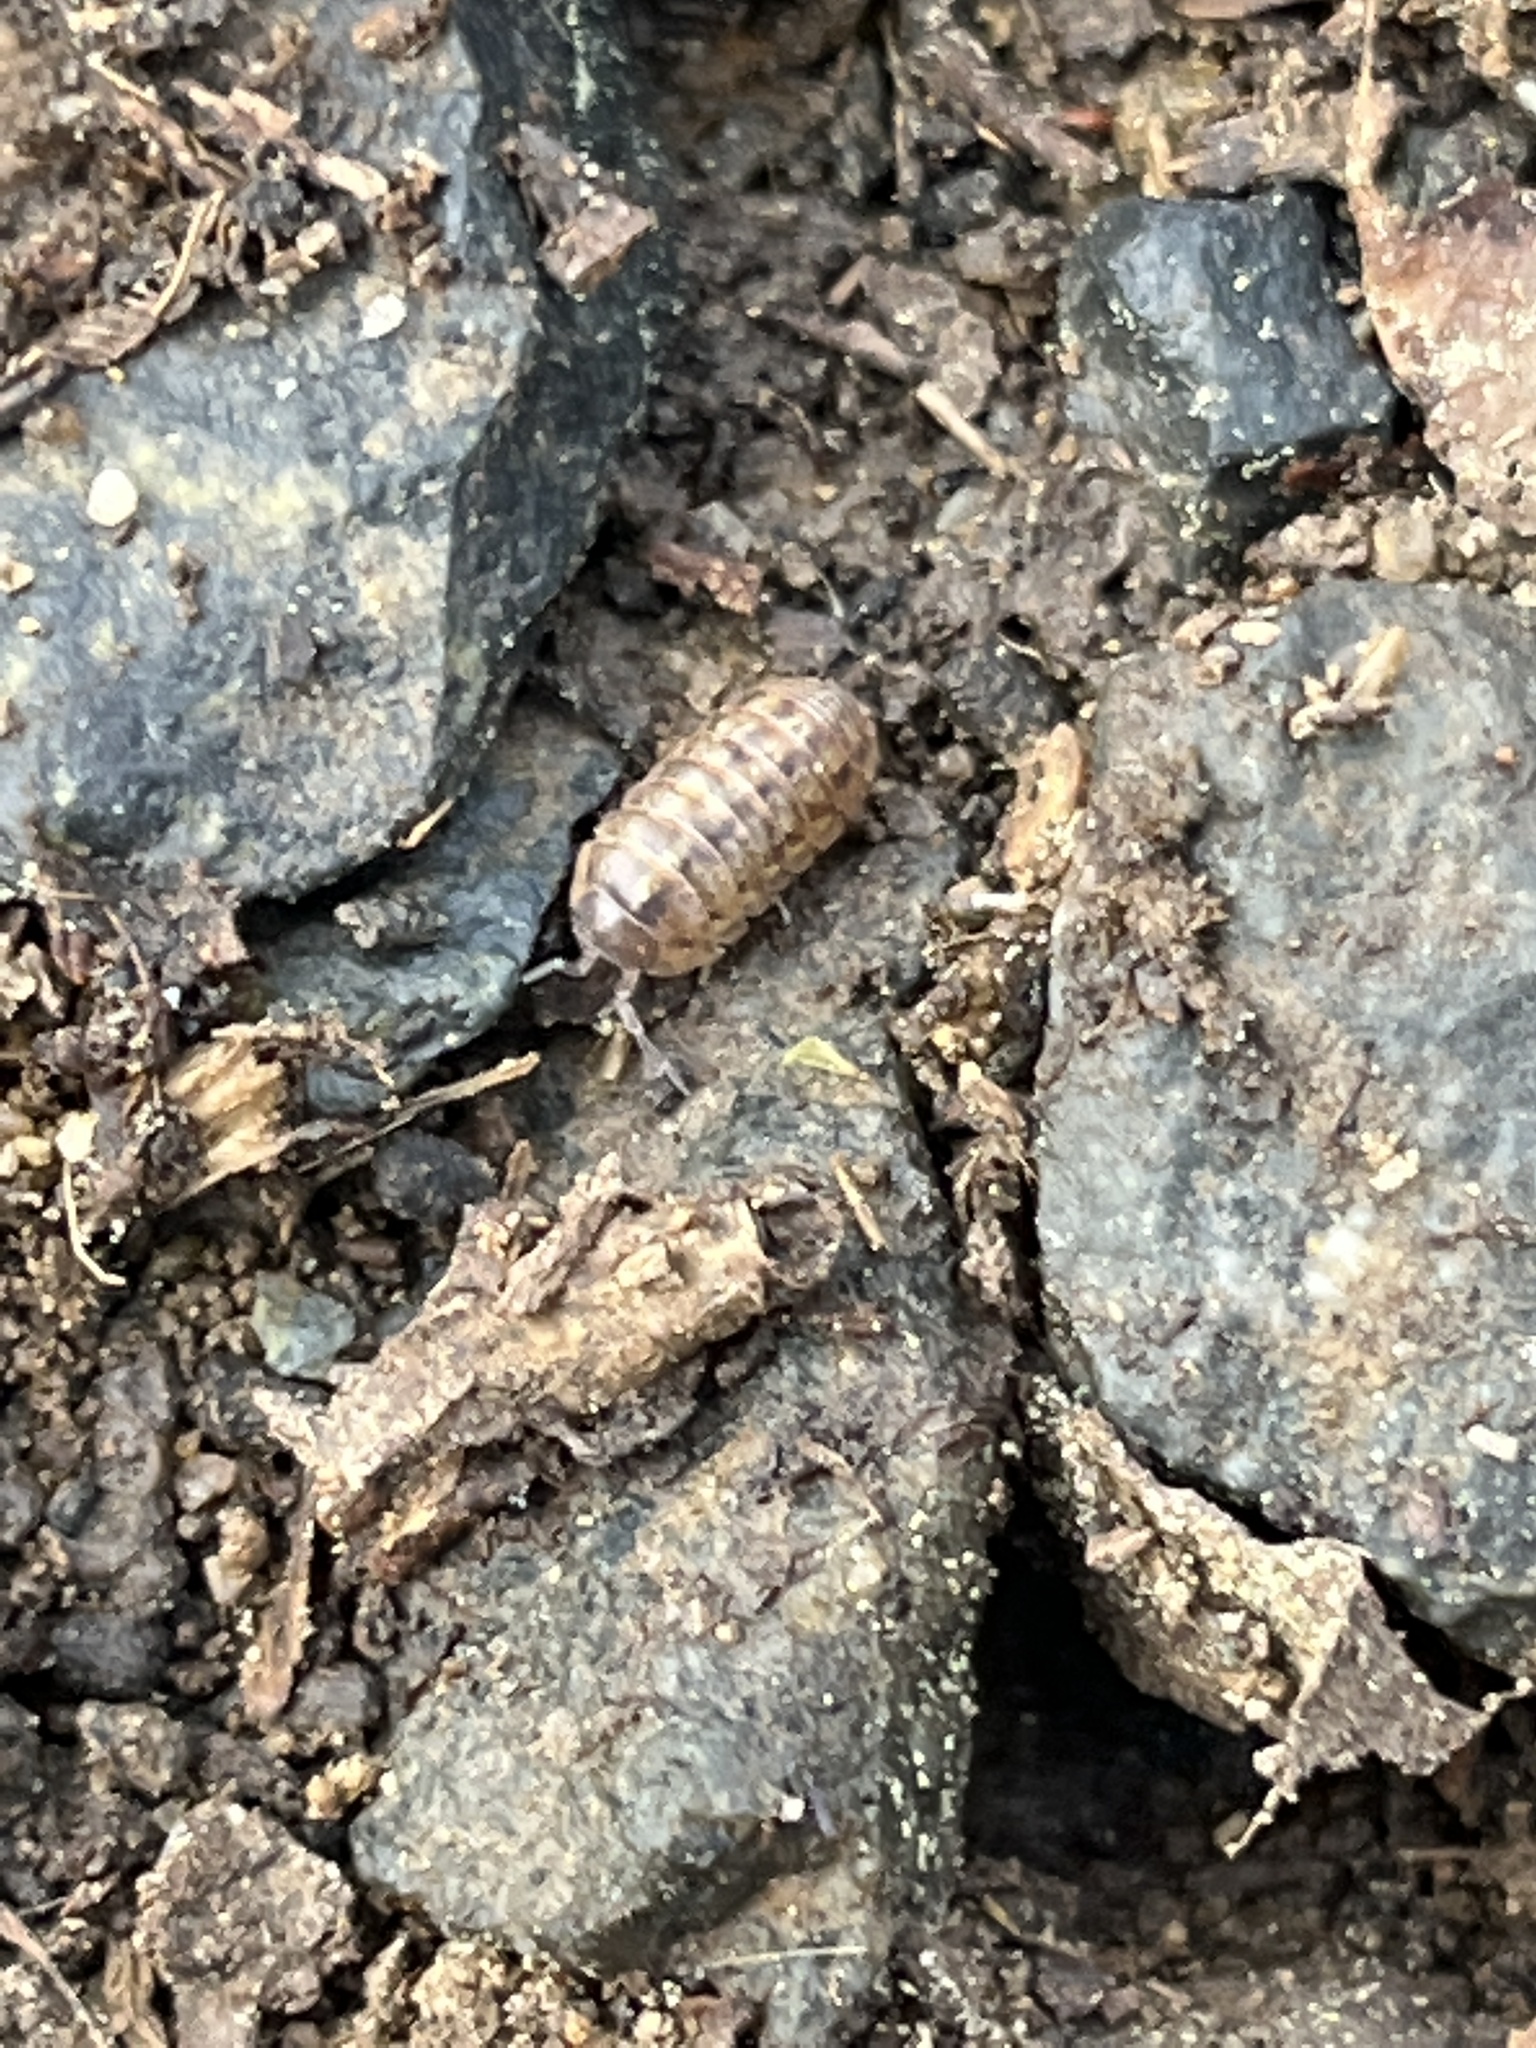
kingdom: Animalia
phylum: Arthropoda
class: Malacostraca
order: Isopoda
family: Armadillidiidae
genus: Armadillidium
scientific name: Armadillidium vulgare
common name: Common pill woodlouse
